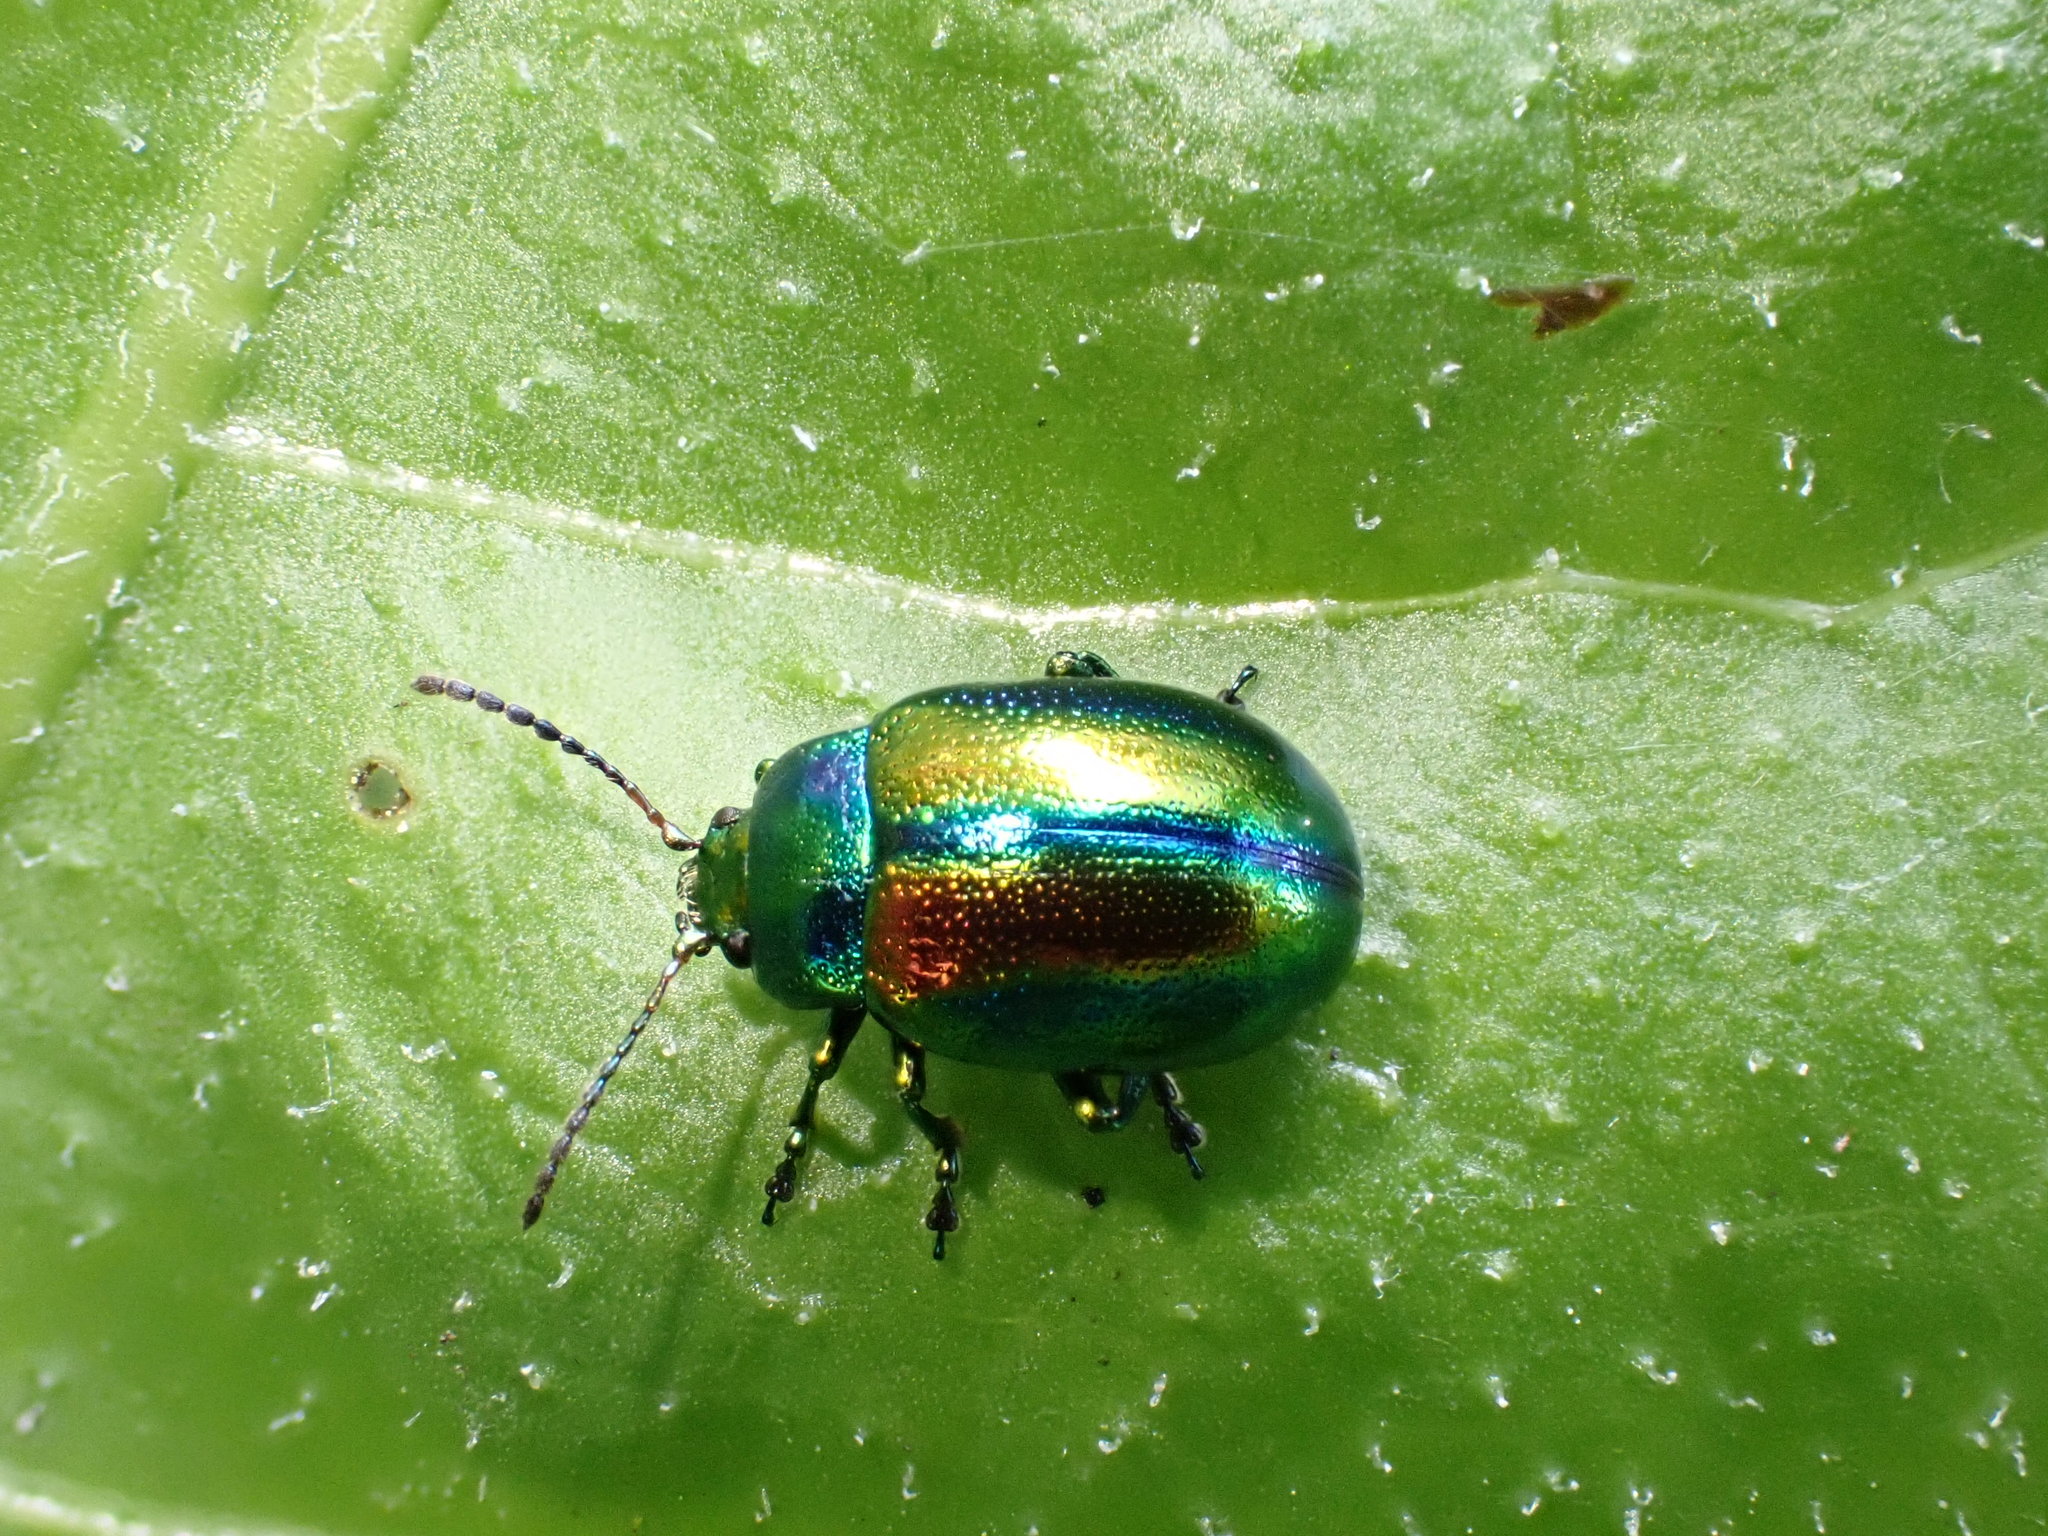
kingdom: Animalia
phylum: Arthropoda
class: Insecta
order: Coleoptera
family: Chrysomelidae
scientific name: Chrysomelidae
